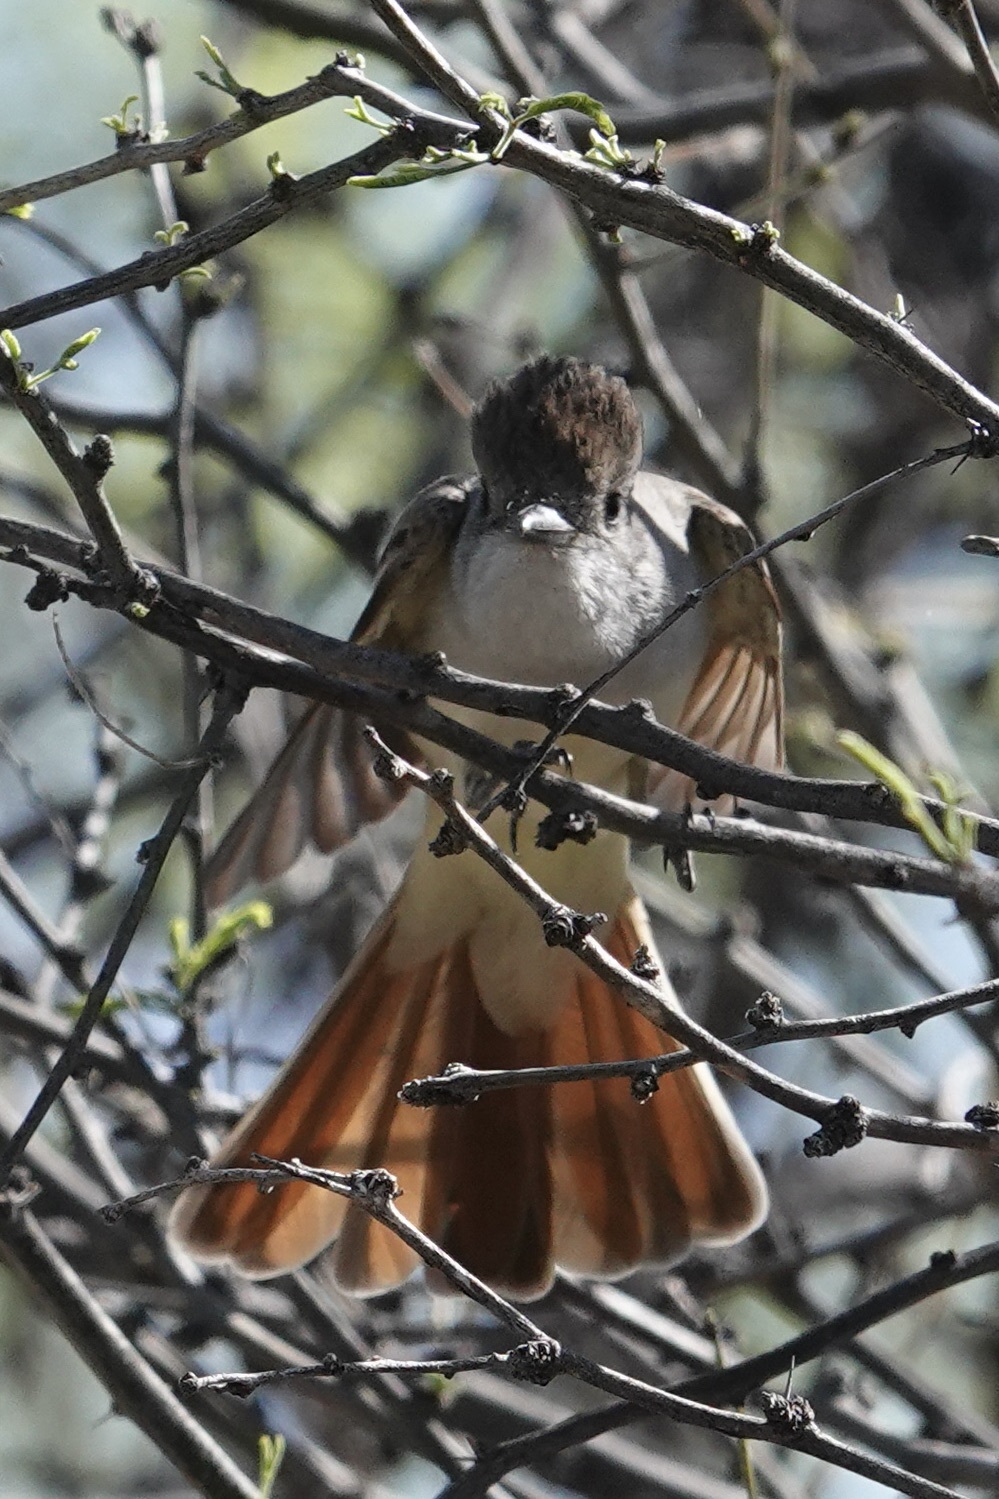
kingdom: Animalia
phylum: Chordata
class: Aves
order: Passeriformes
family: Tyrannidae
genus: Myiarchus
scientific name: Myiarchus cinerascens
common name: Ash-throated flycatcher
